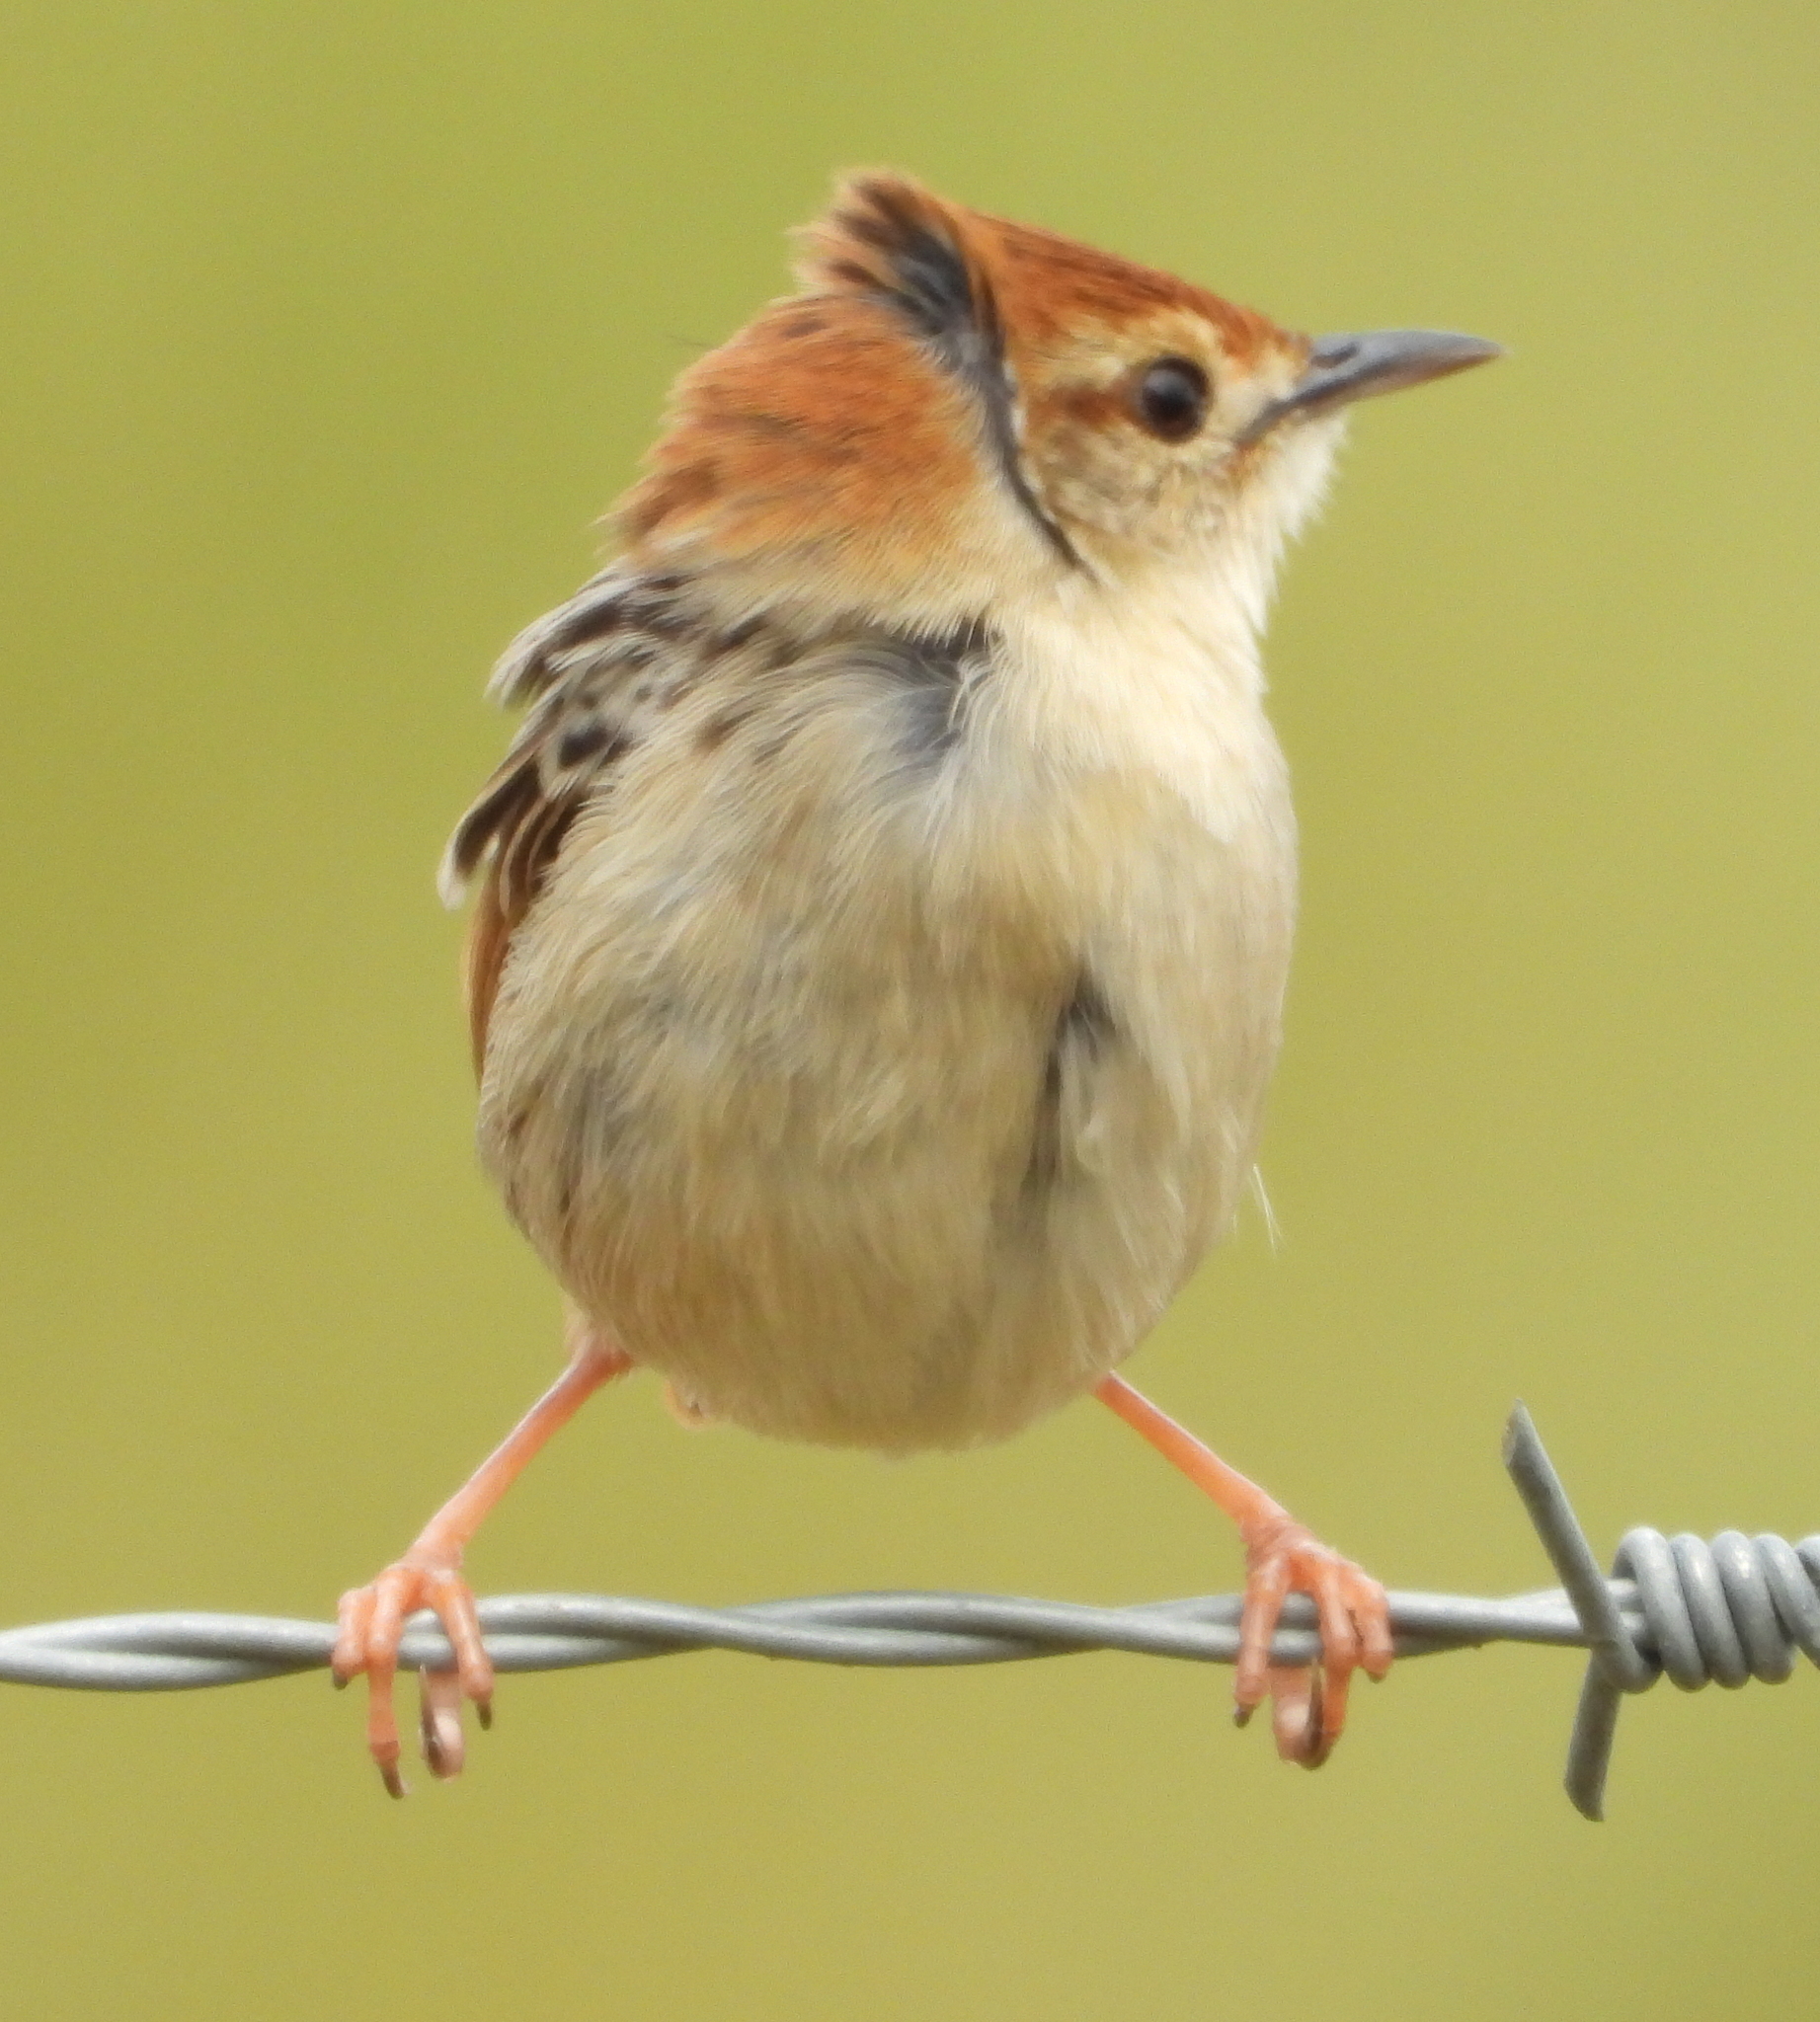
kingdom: Animalia
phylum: Chordata
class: Aves
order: Passeriformes
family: Cisticolidae
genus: Cisticola
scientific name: Cisticola tinniens
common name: Levaillant's cisticola
